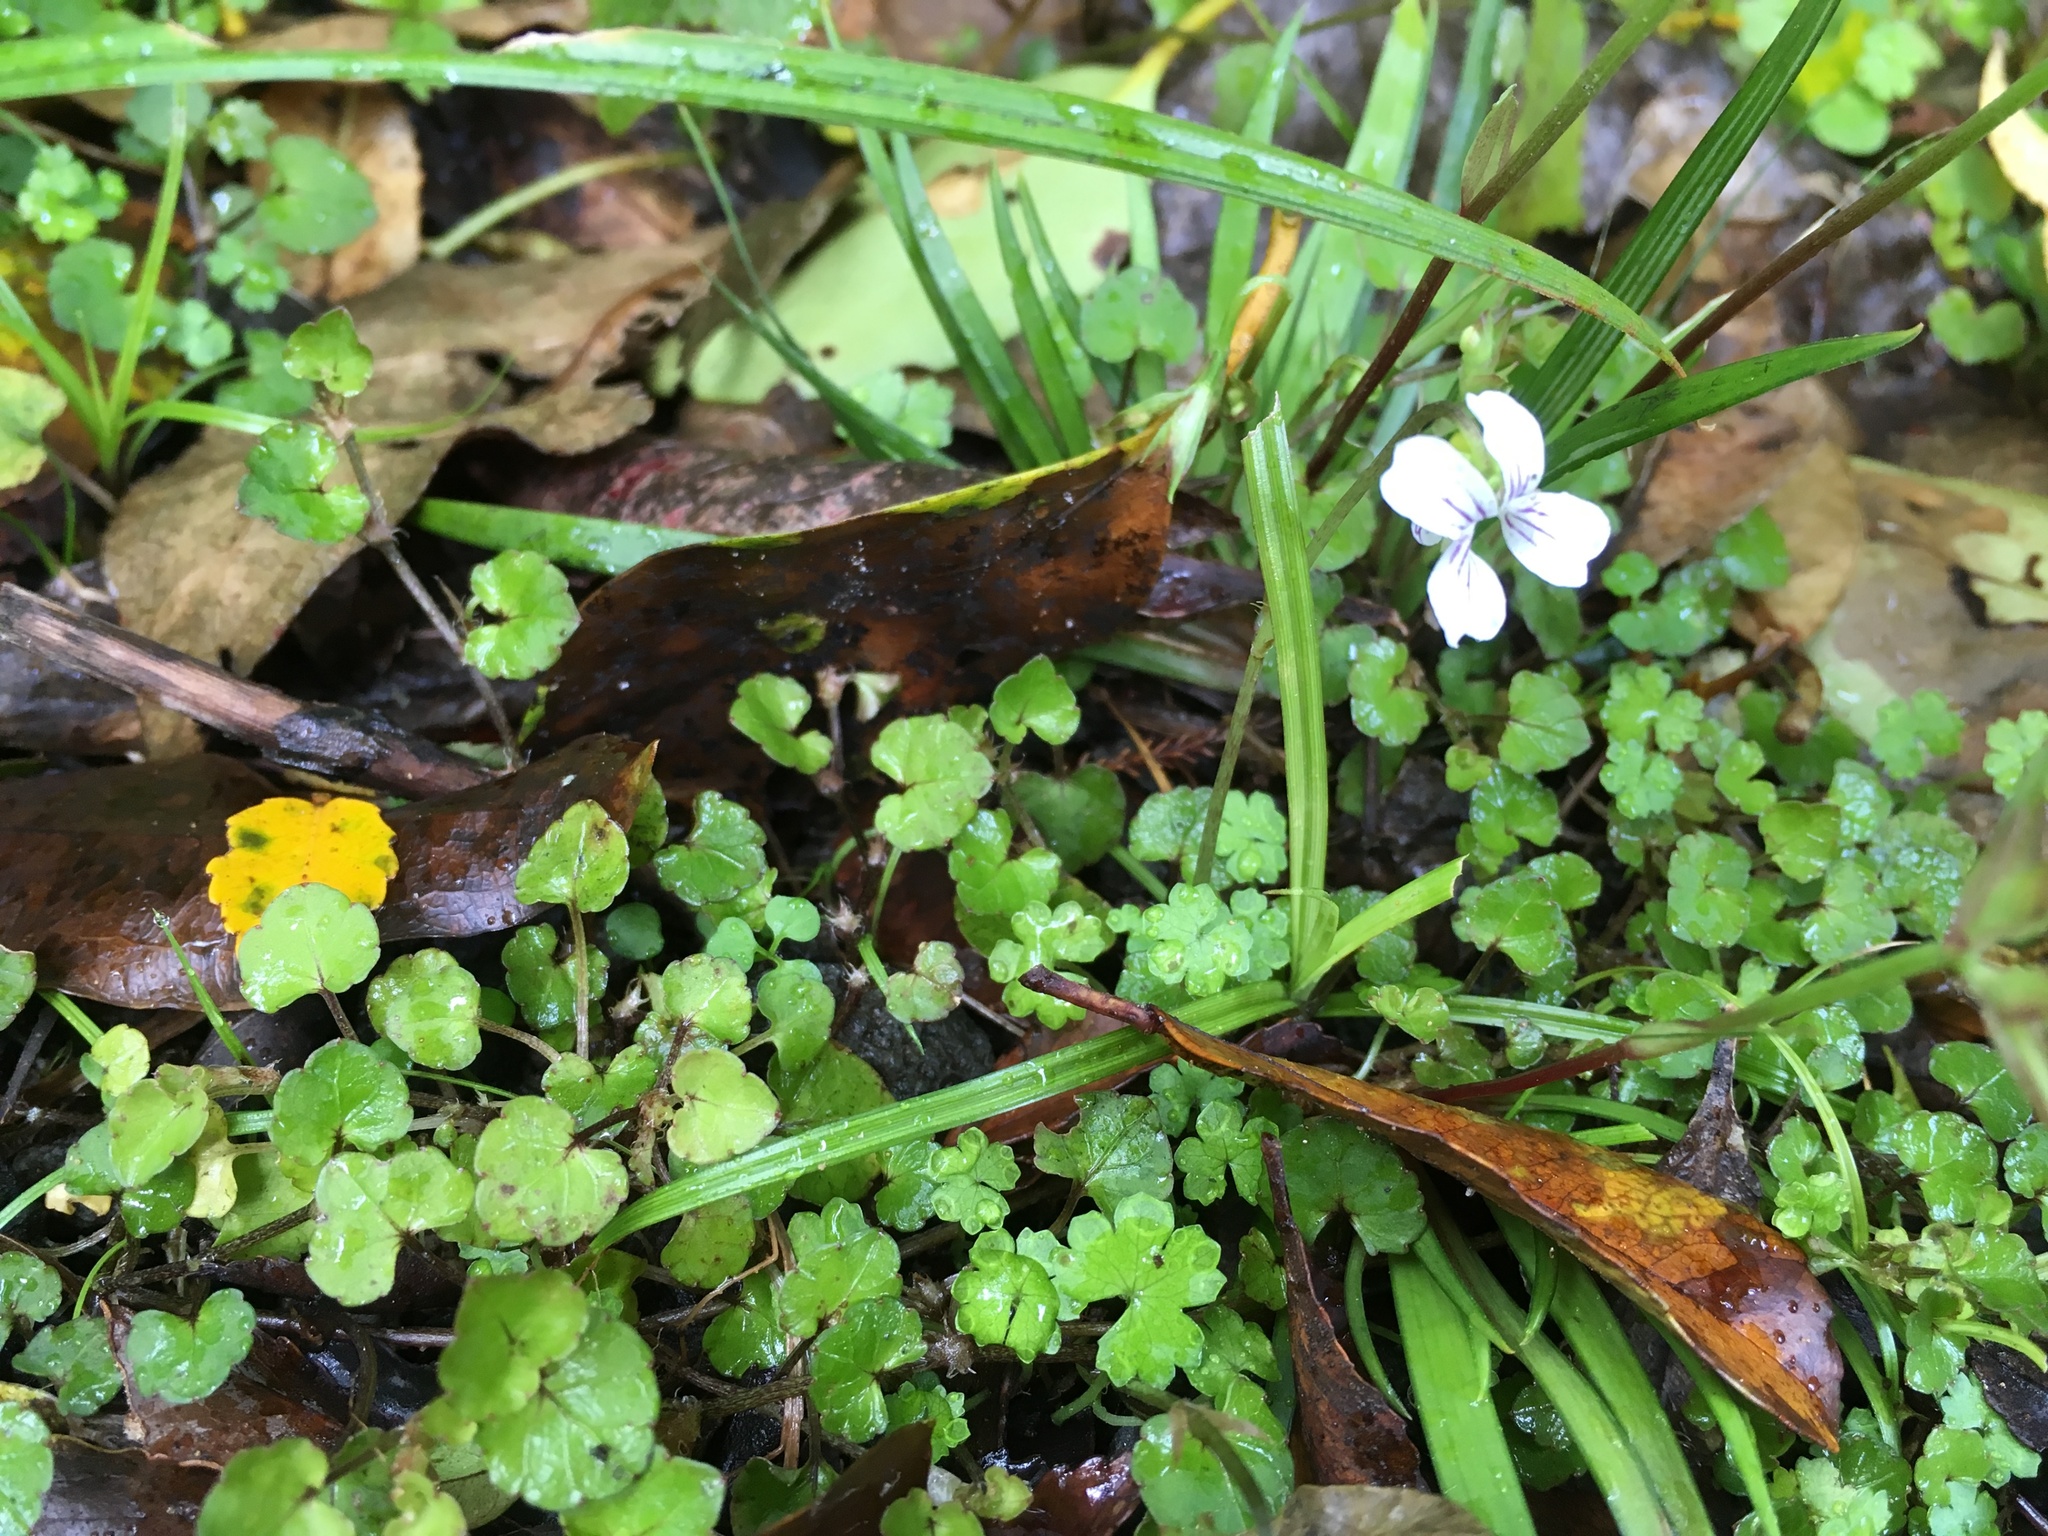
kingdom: Plantae
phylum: Tracheophyta
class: Magnoliopsida
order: Malpighiales
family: Violaceae
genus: Viola
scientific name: Viola filicaulis
